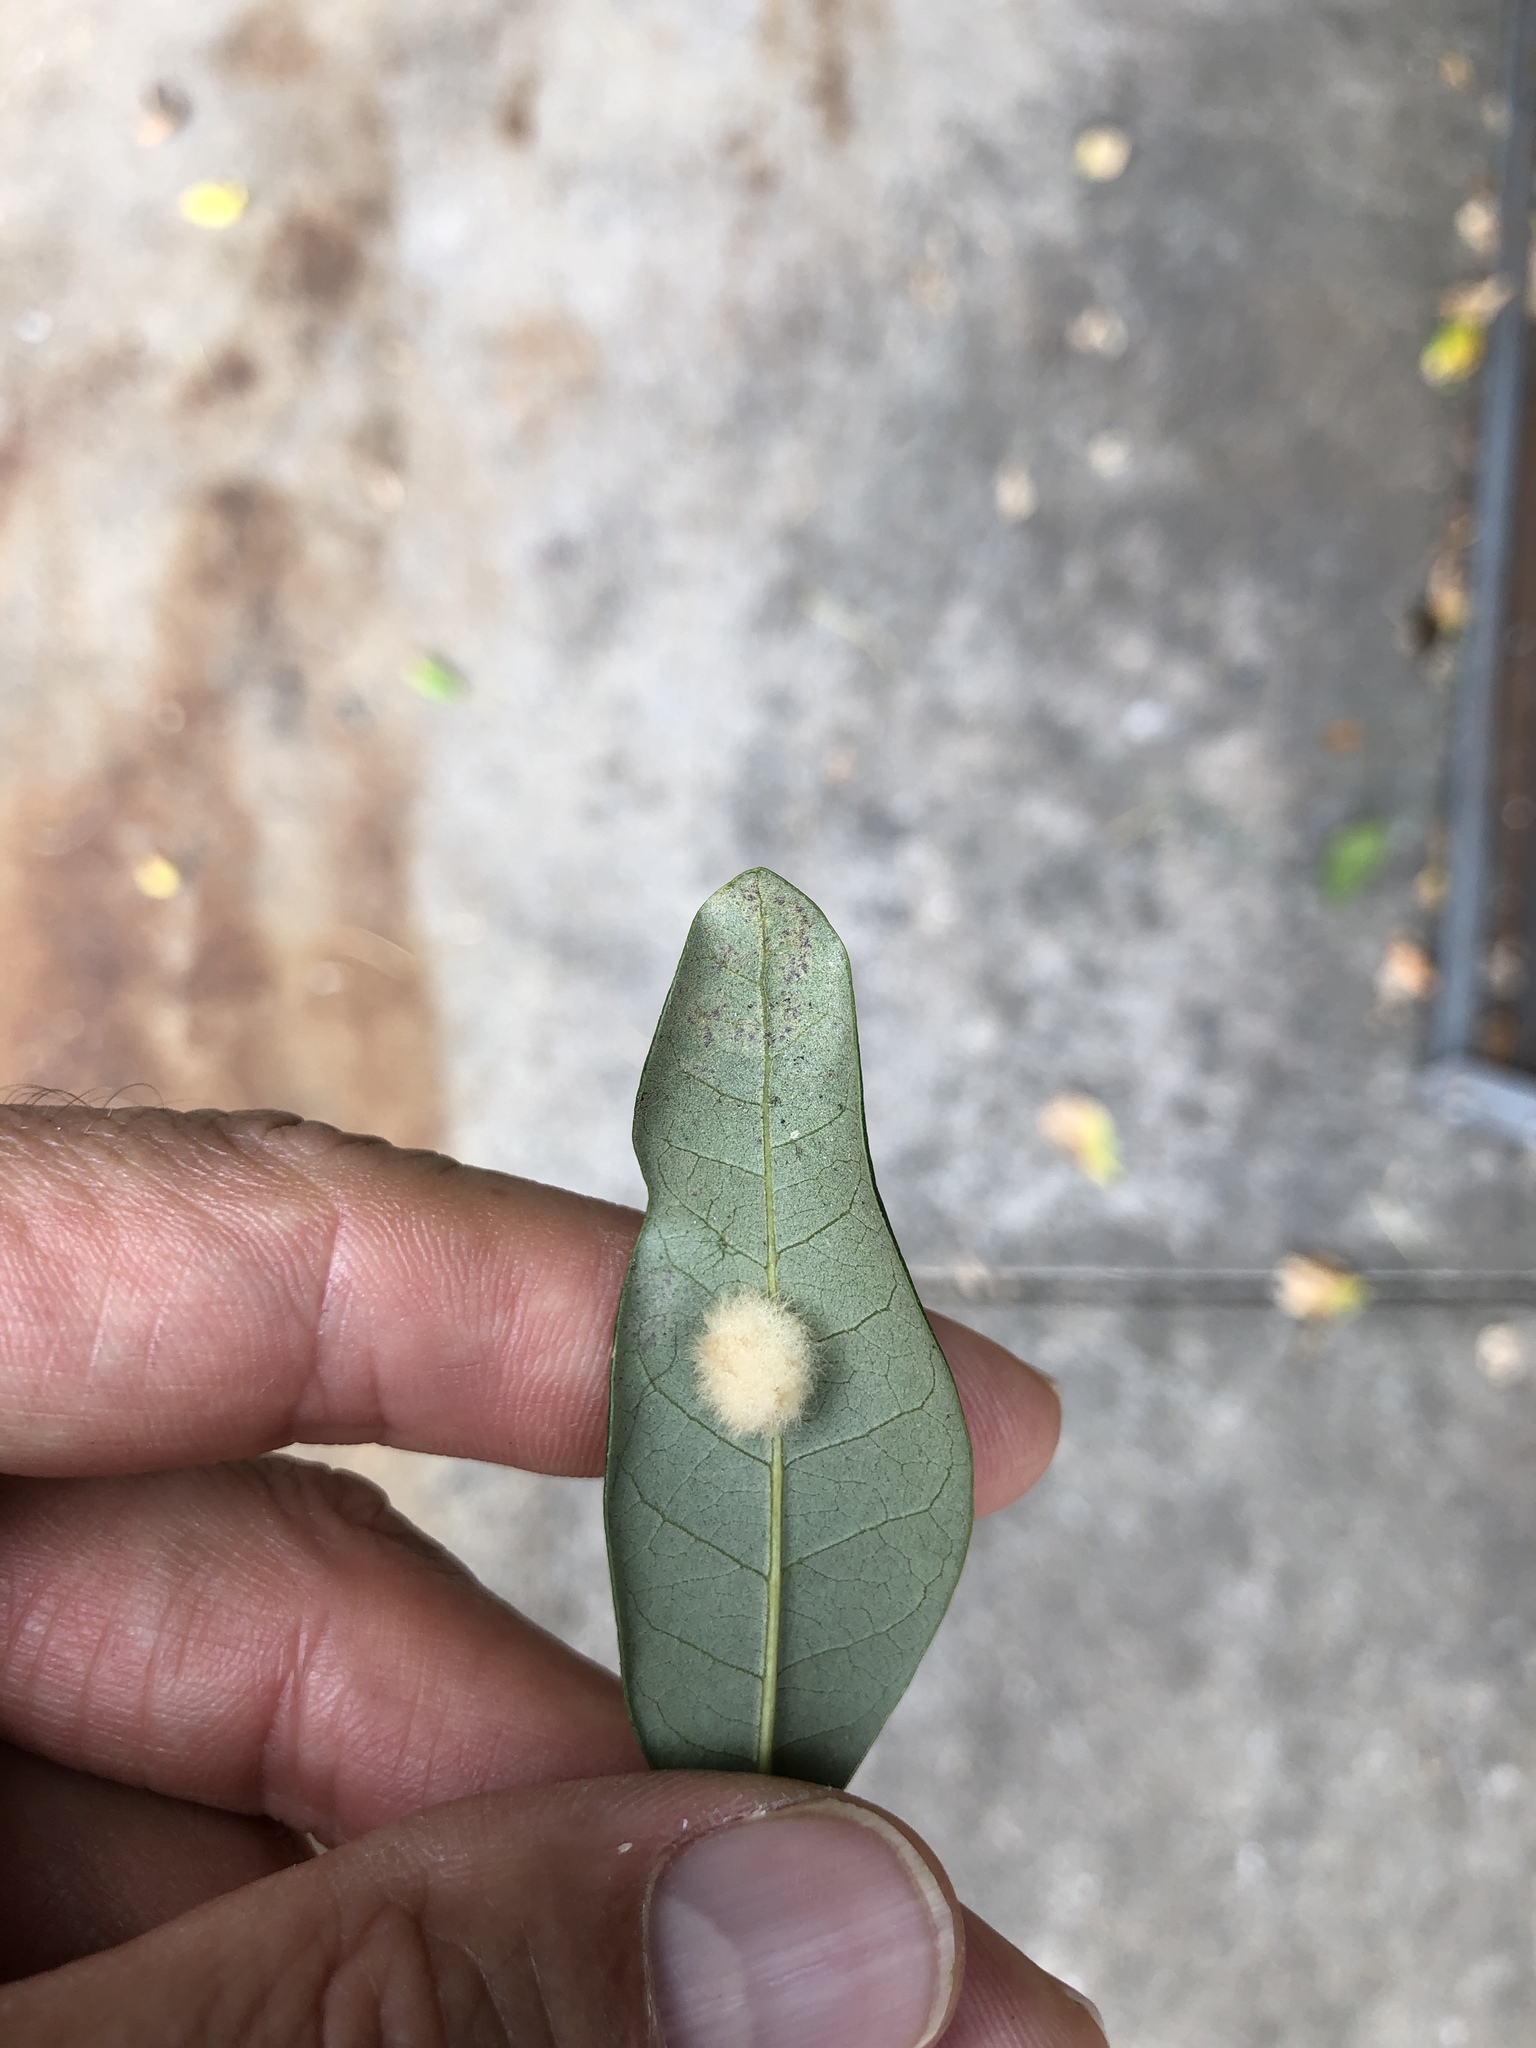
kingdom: Animalia
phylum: Arthropoda
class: Insecta
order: Hymenoptera
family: Cynipidae
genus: Andricus
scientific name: Andricus Druon quercuslanigerum
